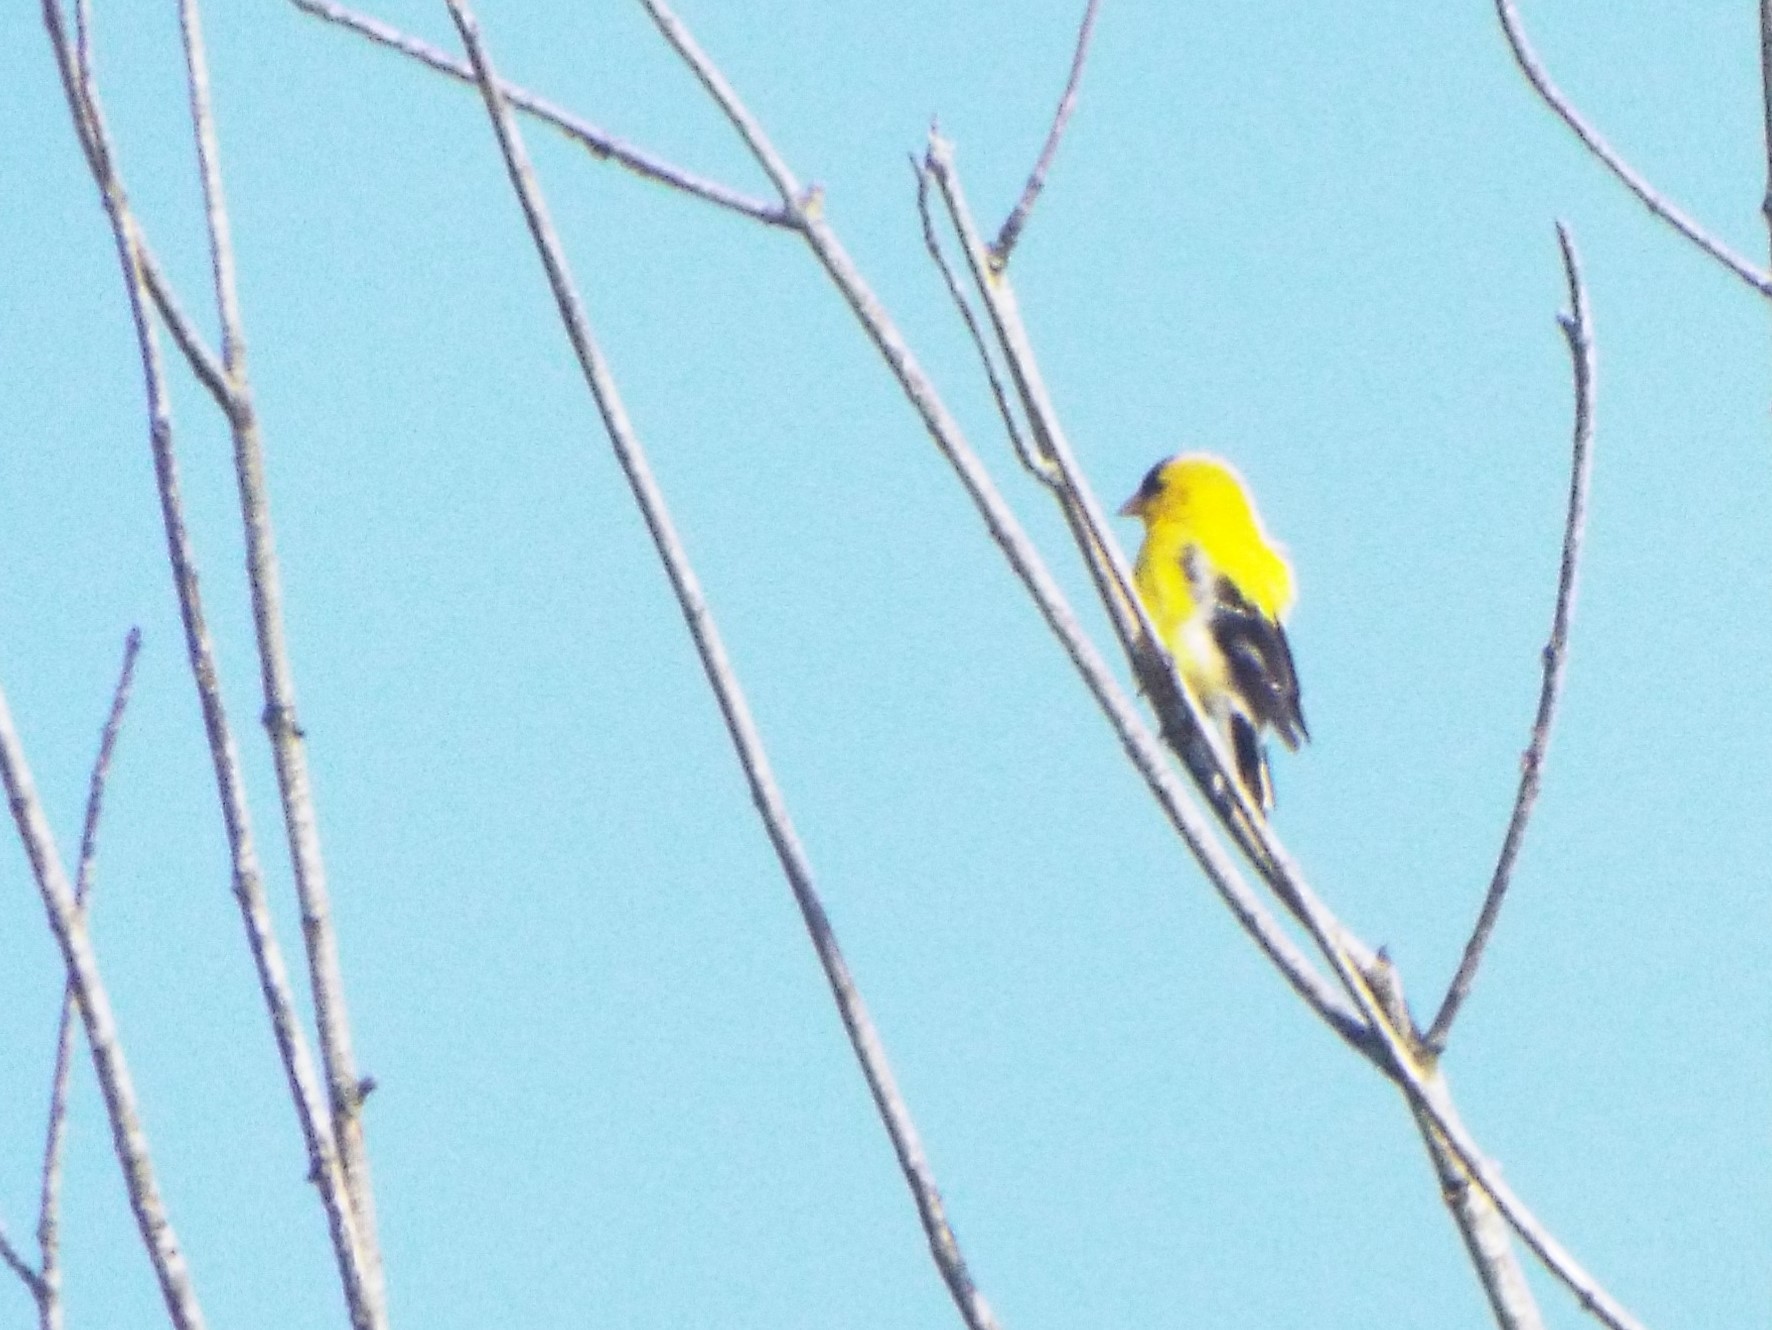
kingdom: Animalia
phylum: Chordata
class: Aves
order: Passeriformes
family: Fringillidae
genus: Spinus
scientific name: Spinus tristis
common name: American goldfinch
